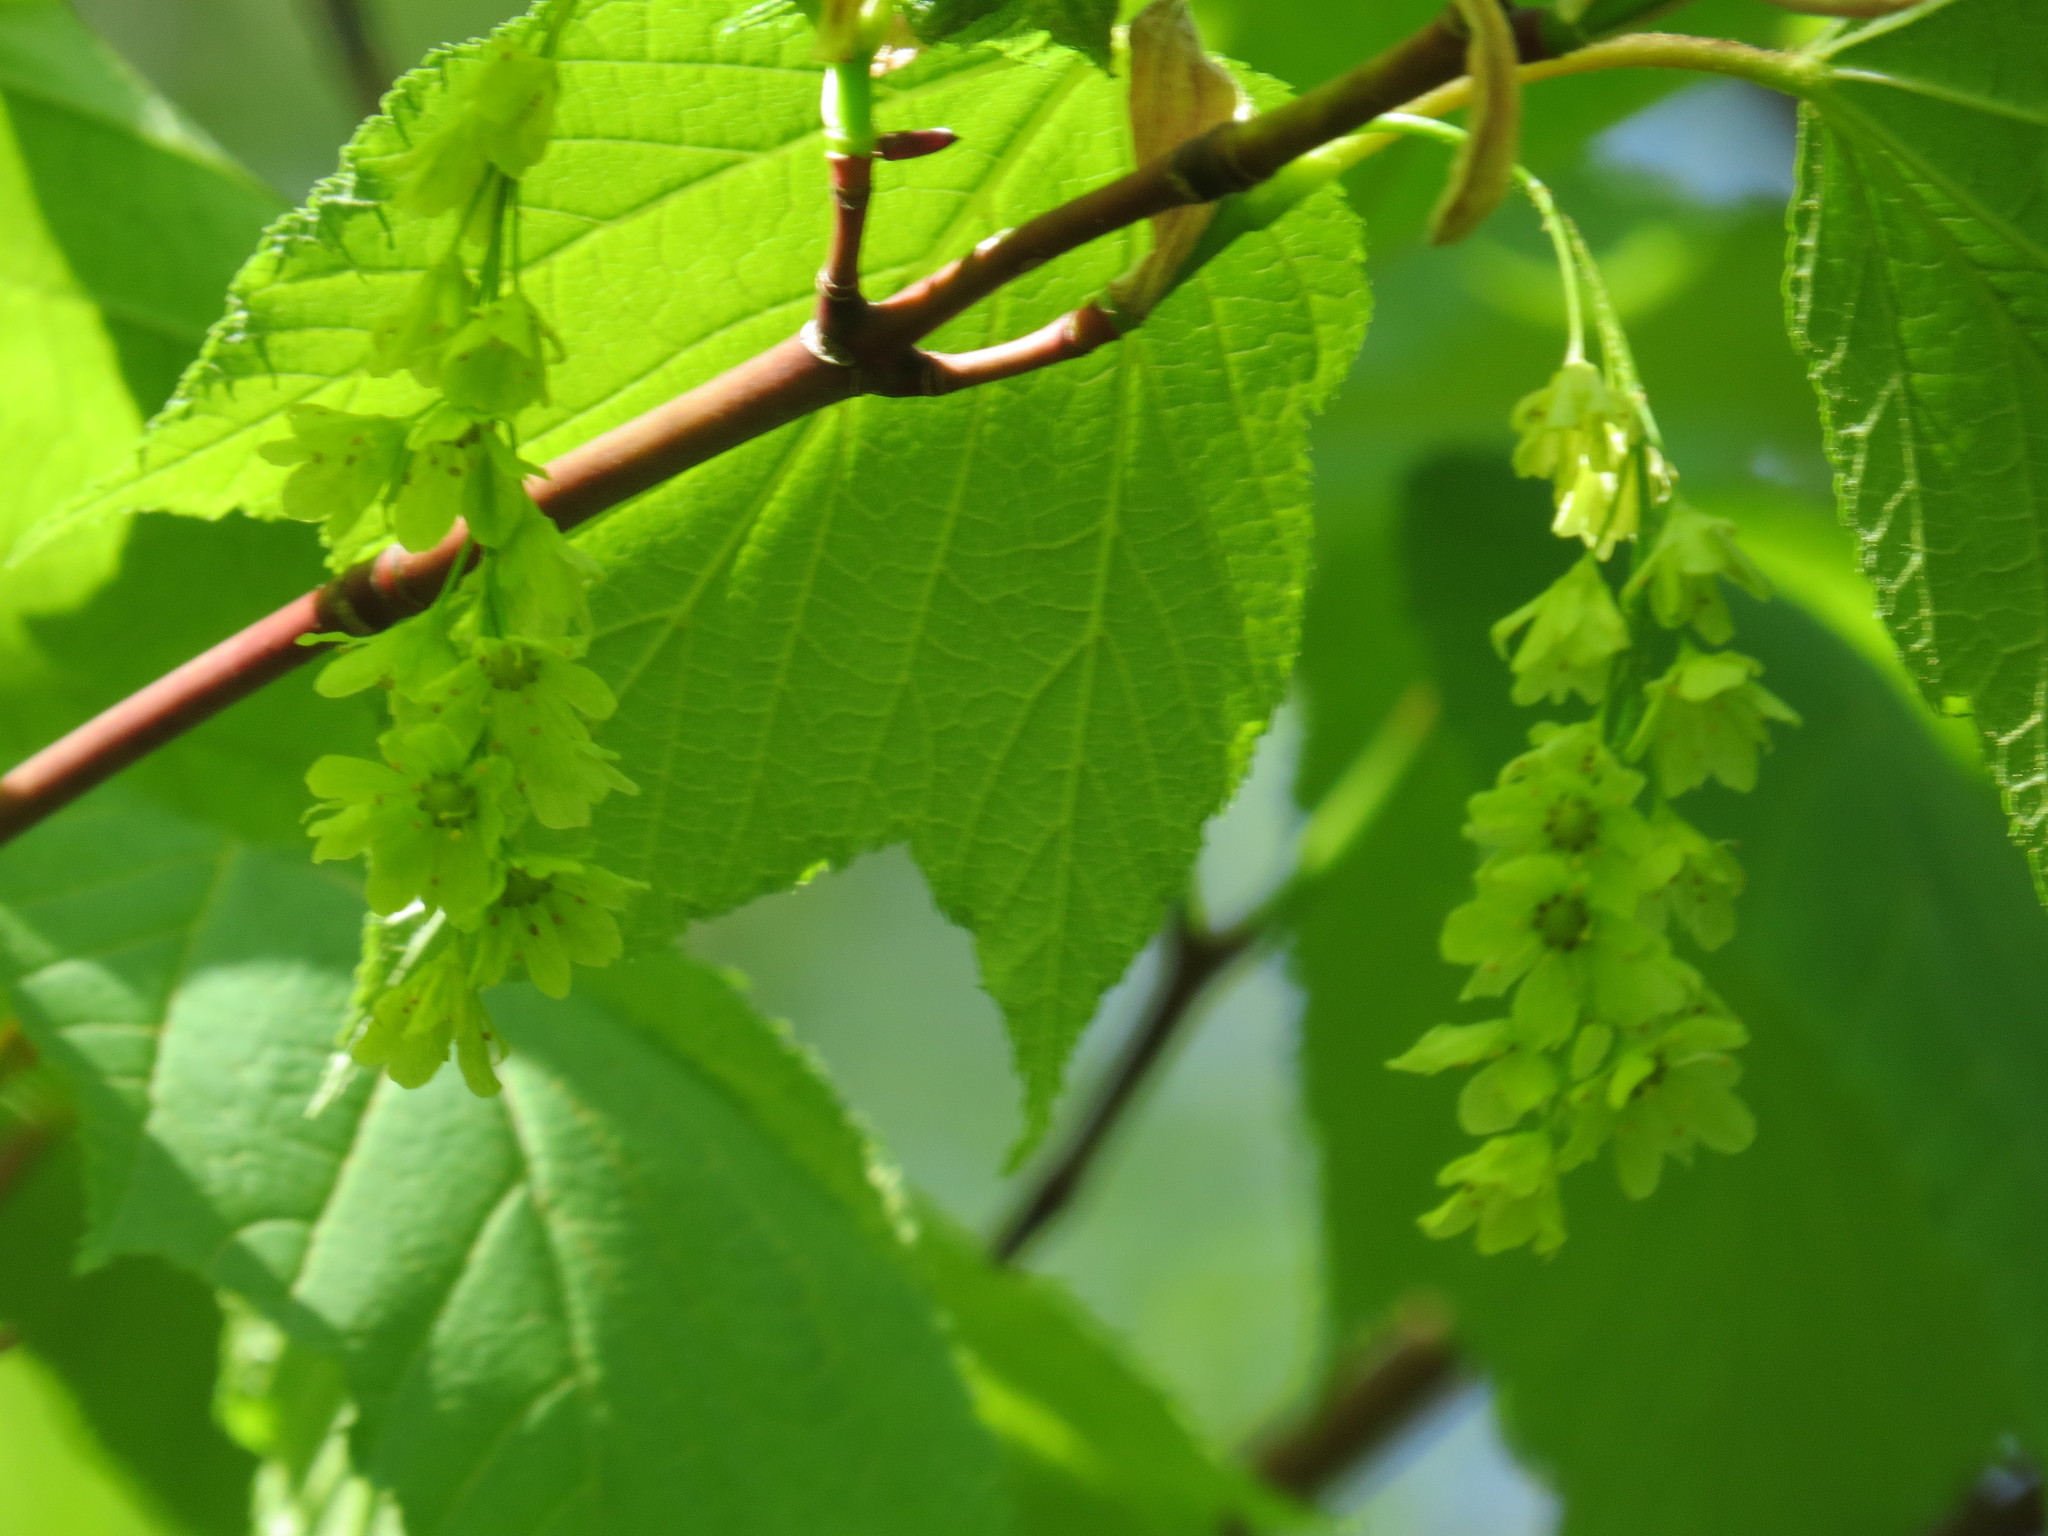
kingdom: Plantae
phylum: Tracheophyta
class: Magnoliopsida
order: Sapindales
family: Sapindaceae
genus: Acer
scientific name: Acer pensylvanicum
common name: Moosewood
